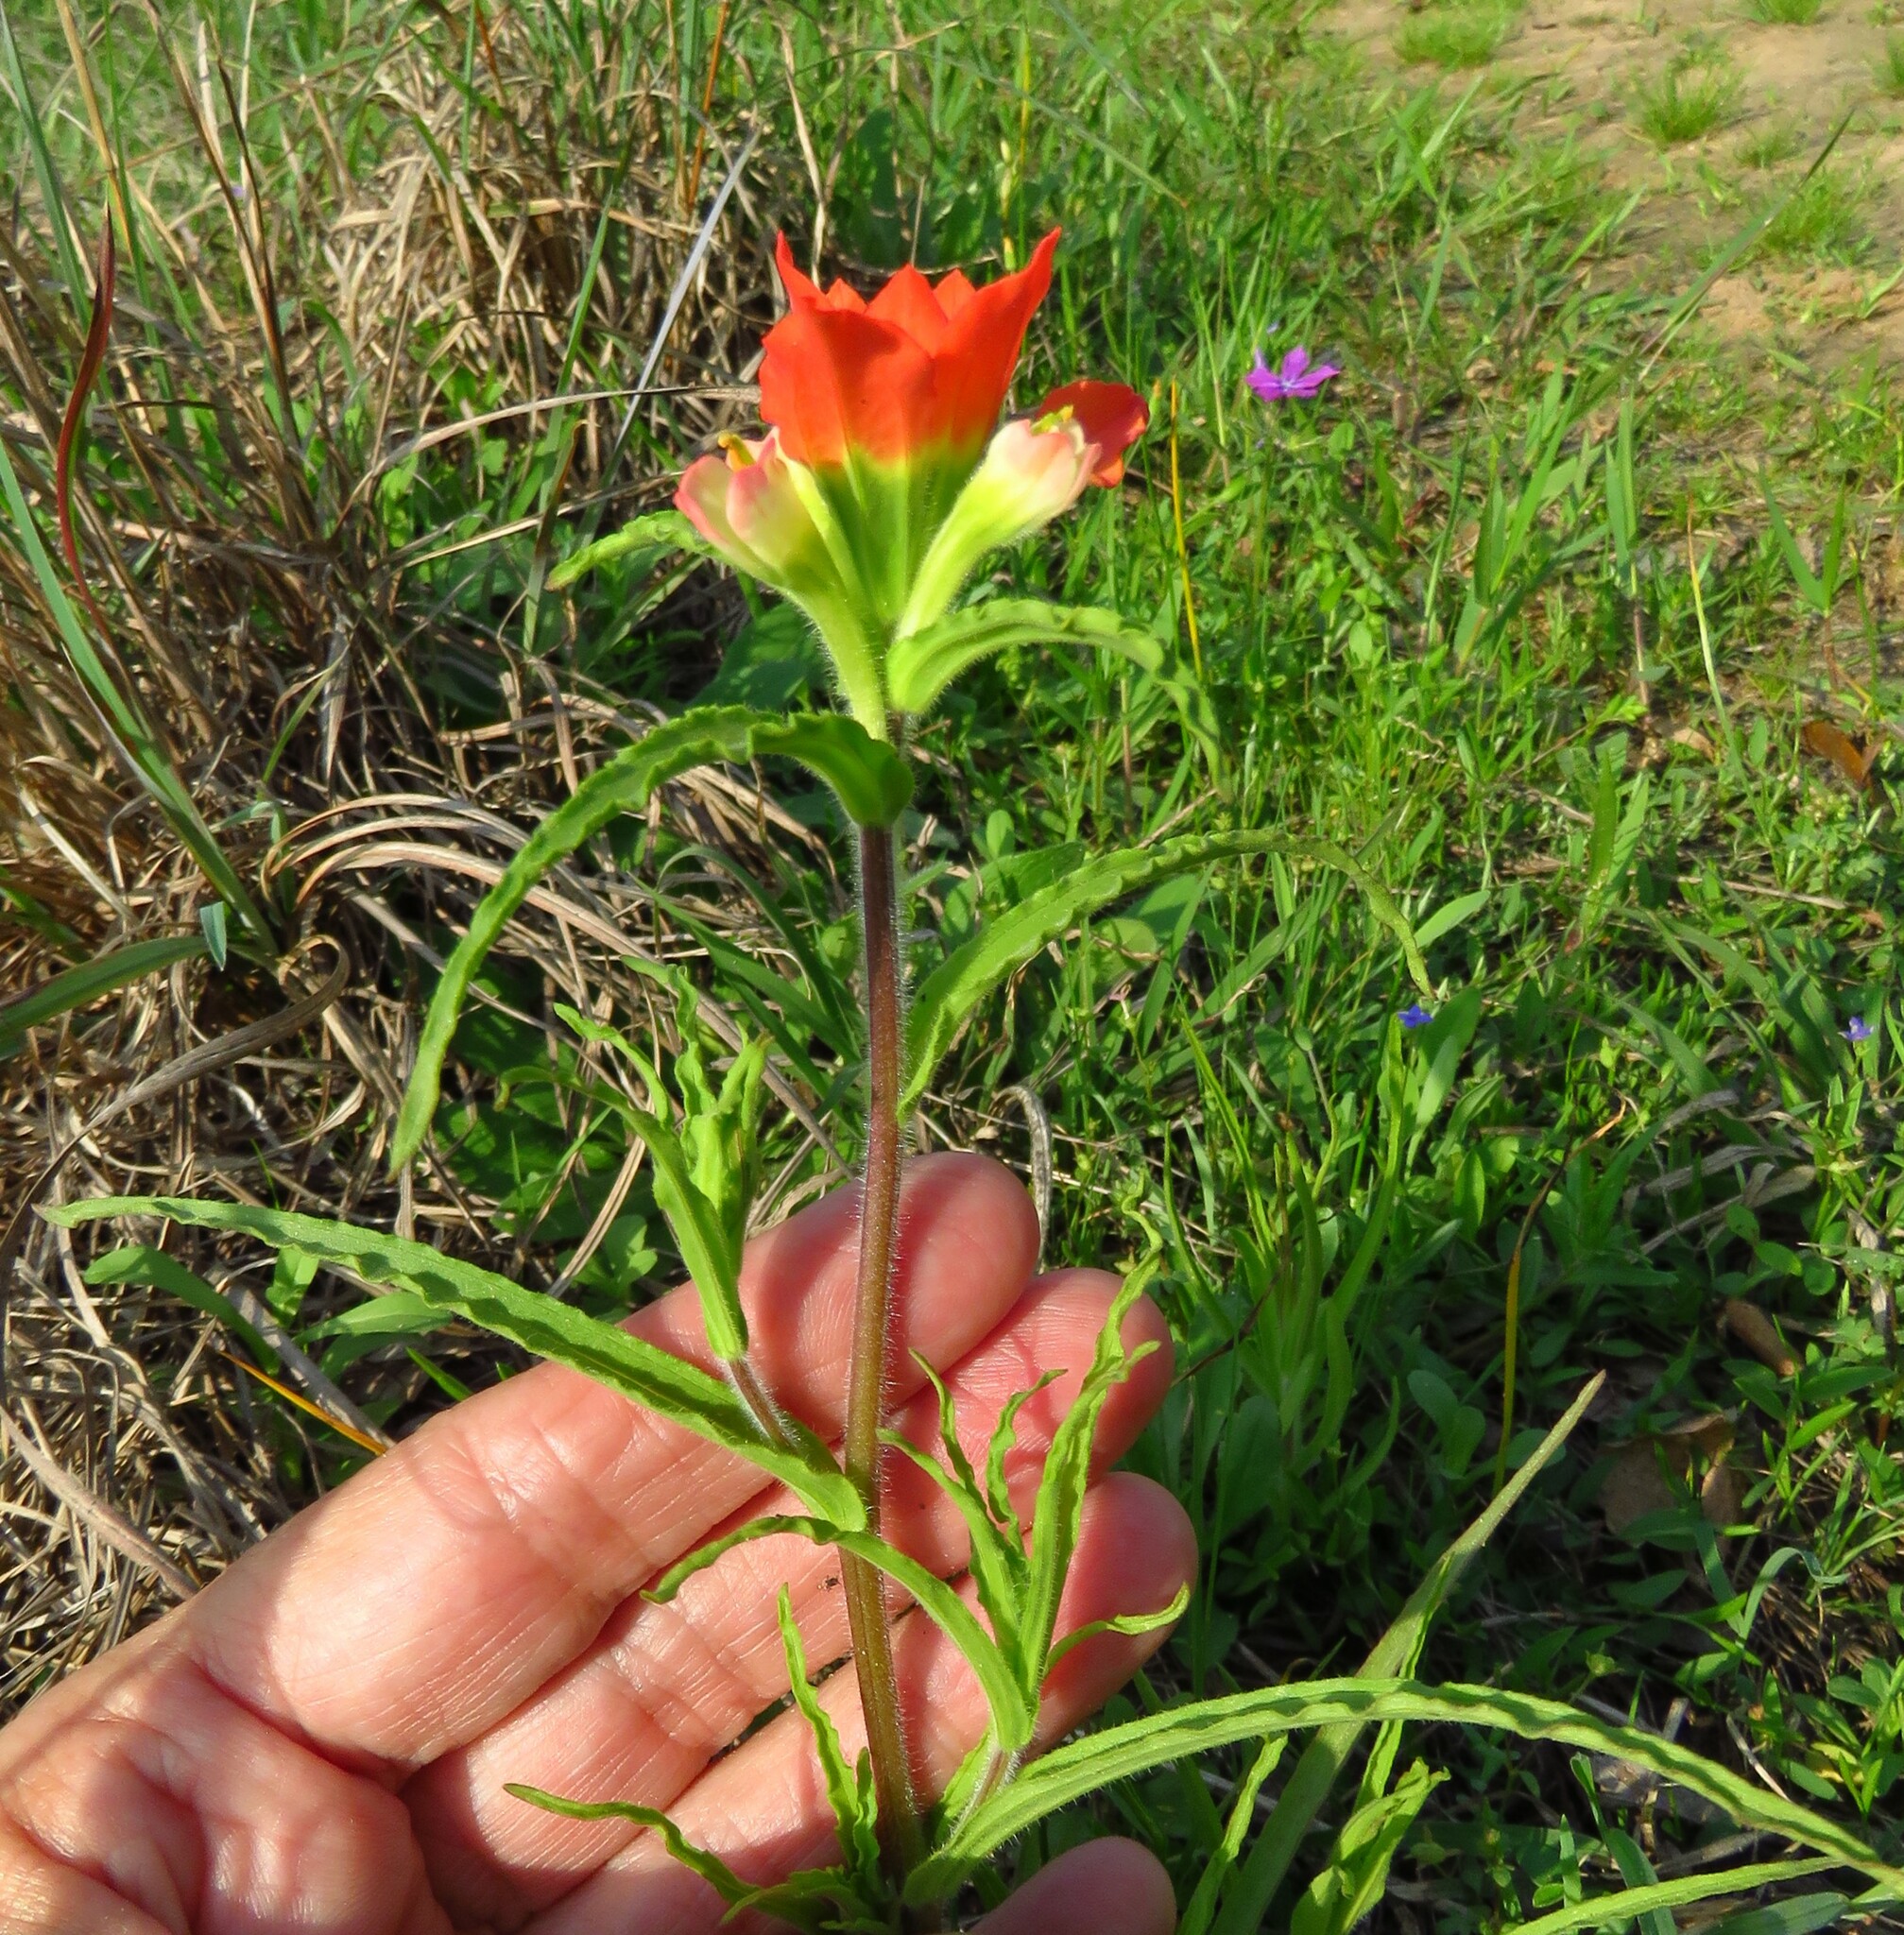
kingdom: Plantae
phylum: Tracheophyta
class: Magnoliopsida
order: Lamiales
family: Orobanchaceae
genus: Castilleja
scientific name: Castilleja indivisa
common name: Texas paintbrush
